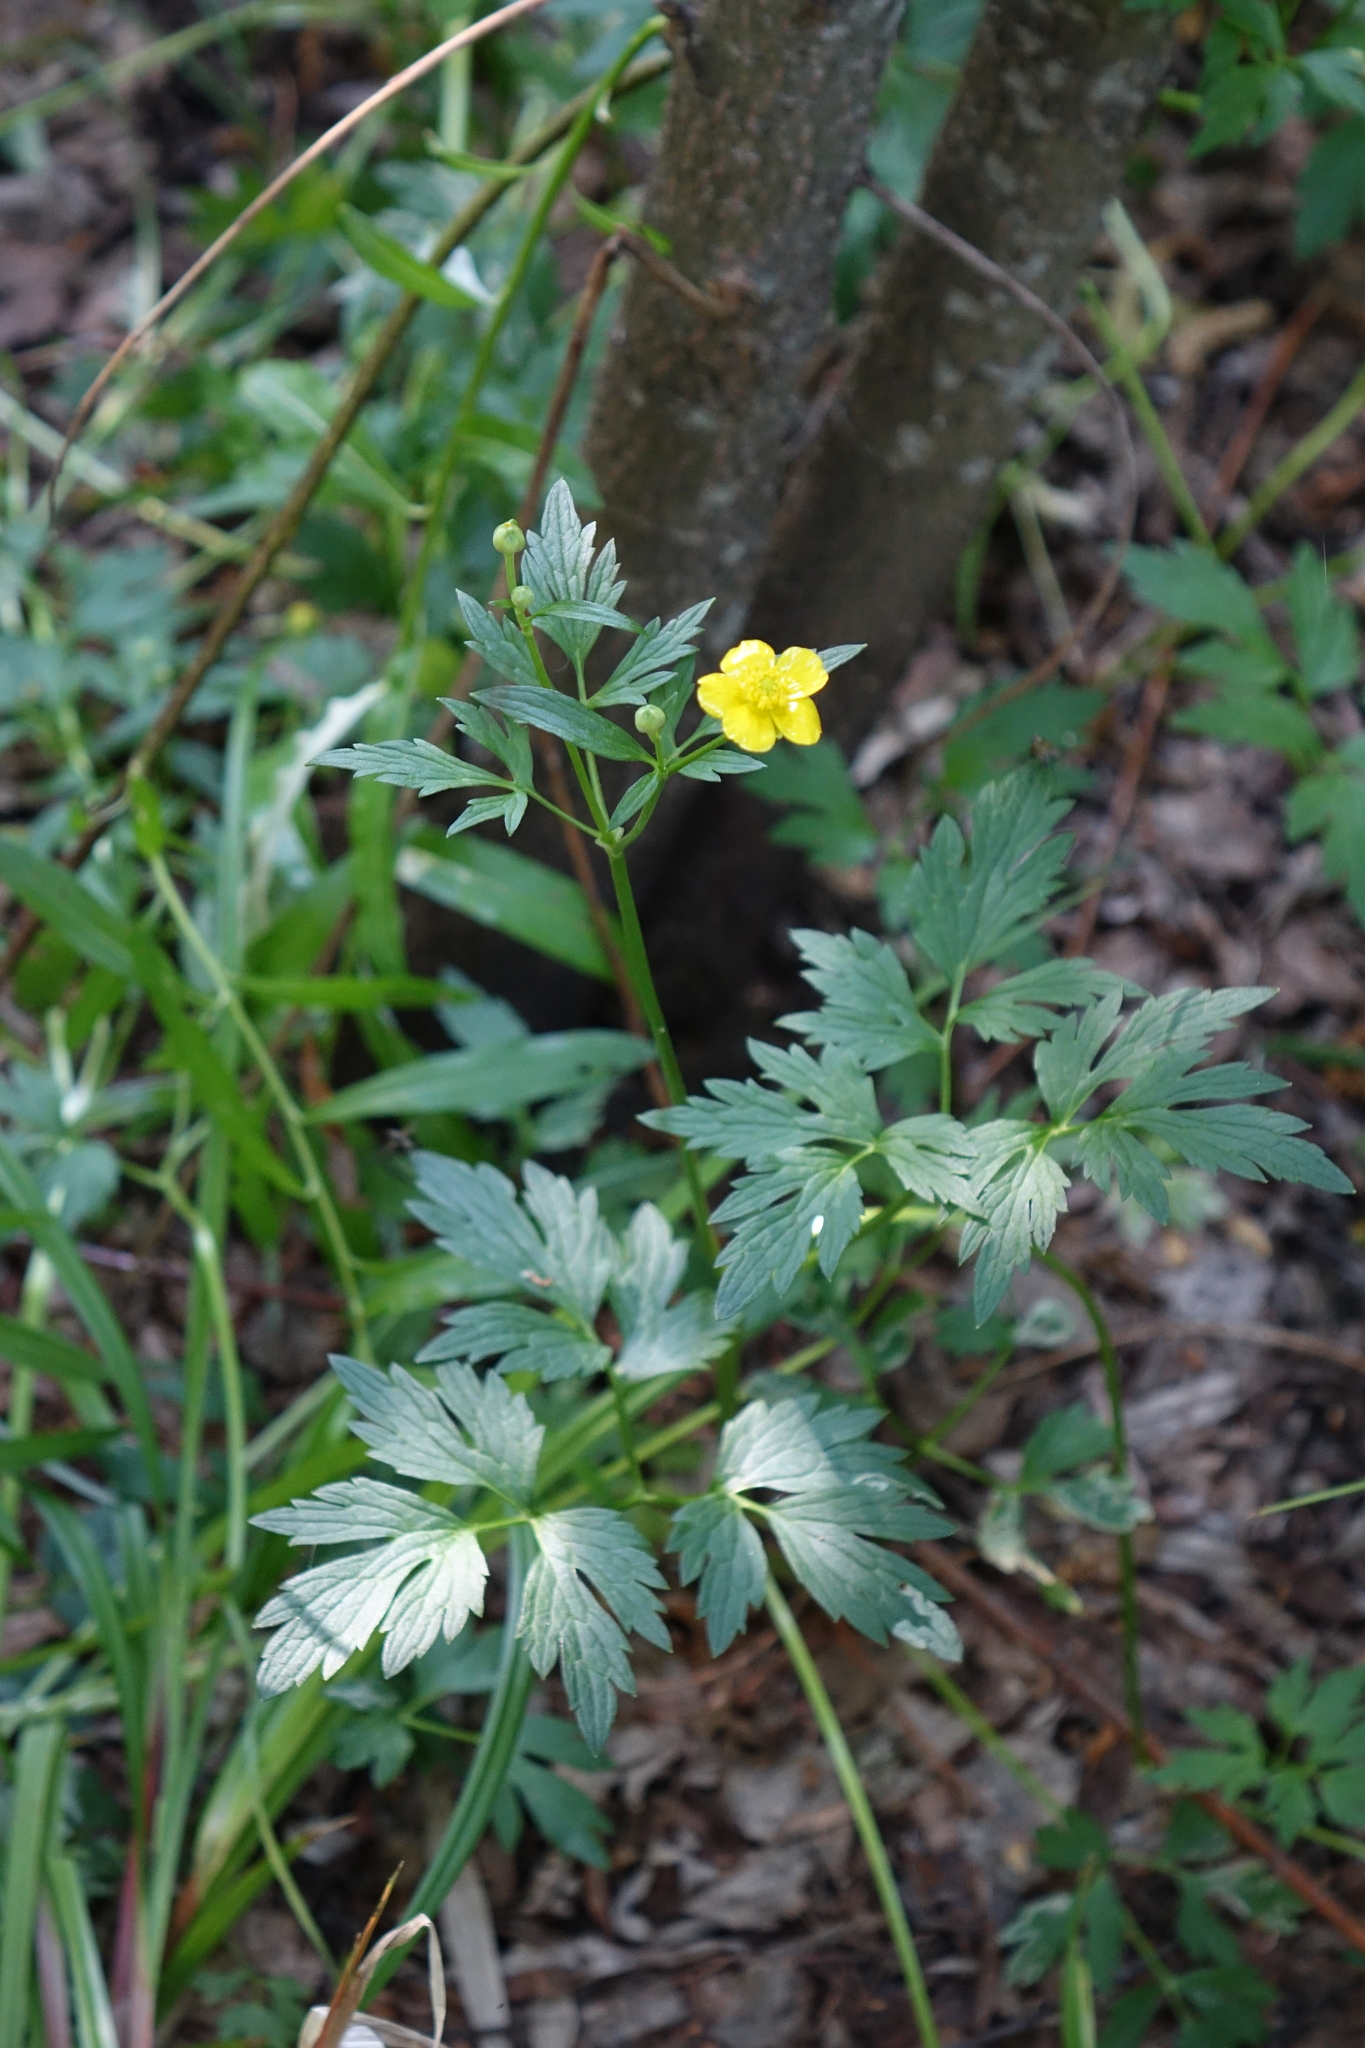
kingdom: Plantae
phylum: Tracheophyta
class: Magnoliopsida
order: Ranunculales
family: Ranunculaceae
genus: Ranunculus
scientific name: Ranunculus repens
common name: Creeping buttercup
